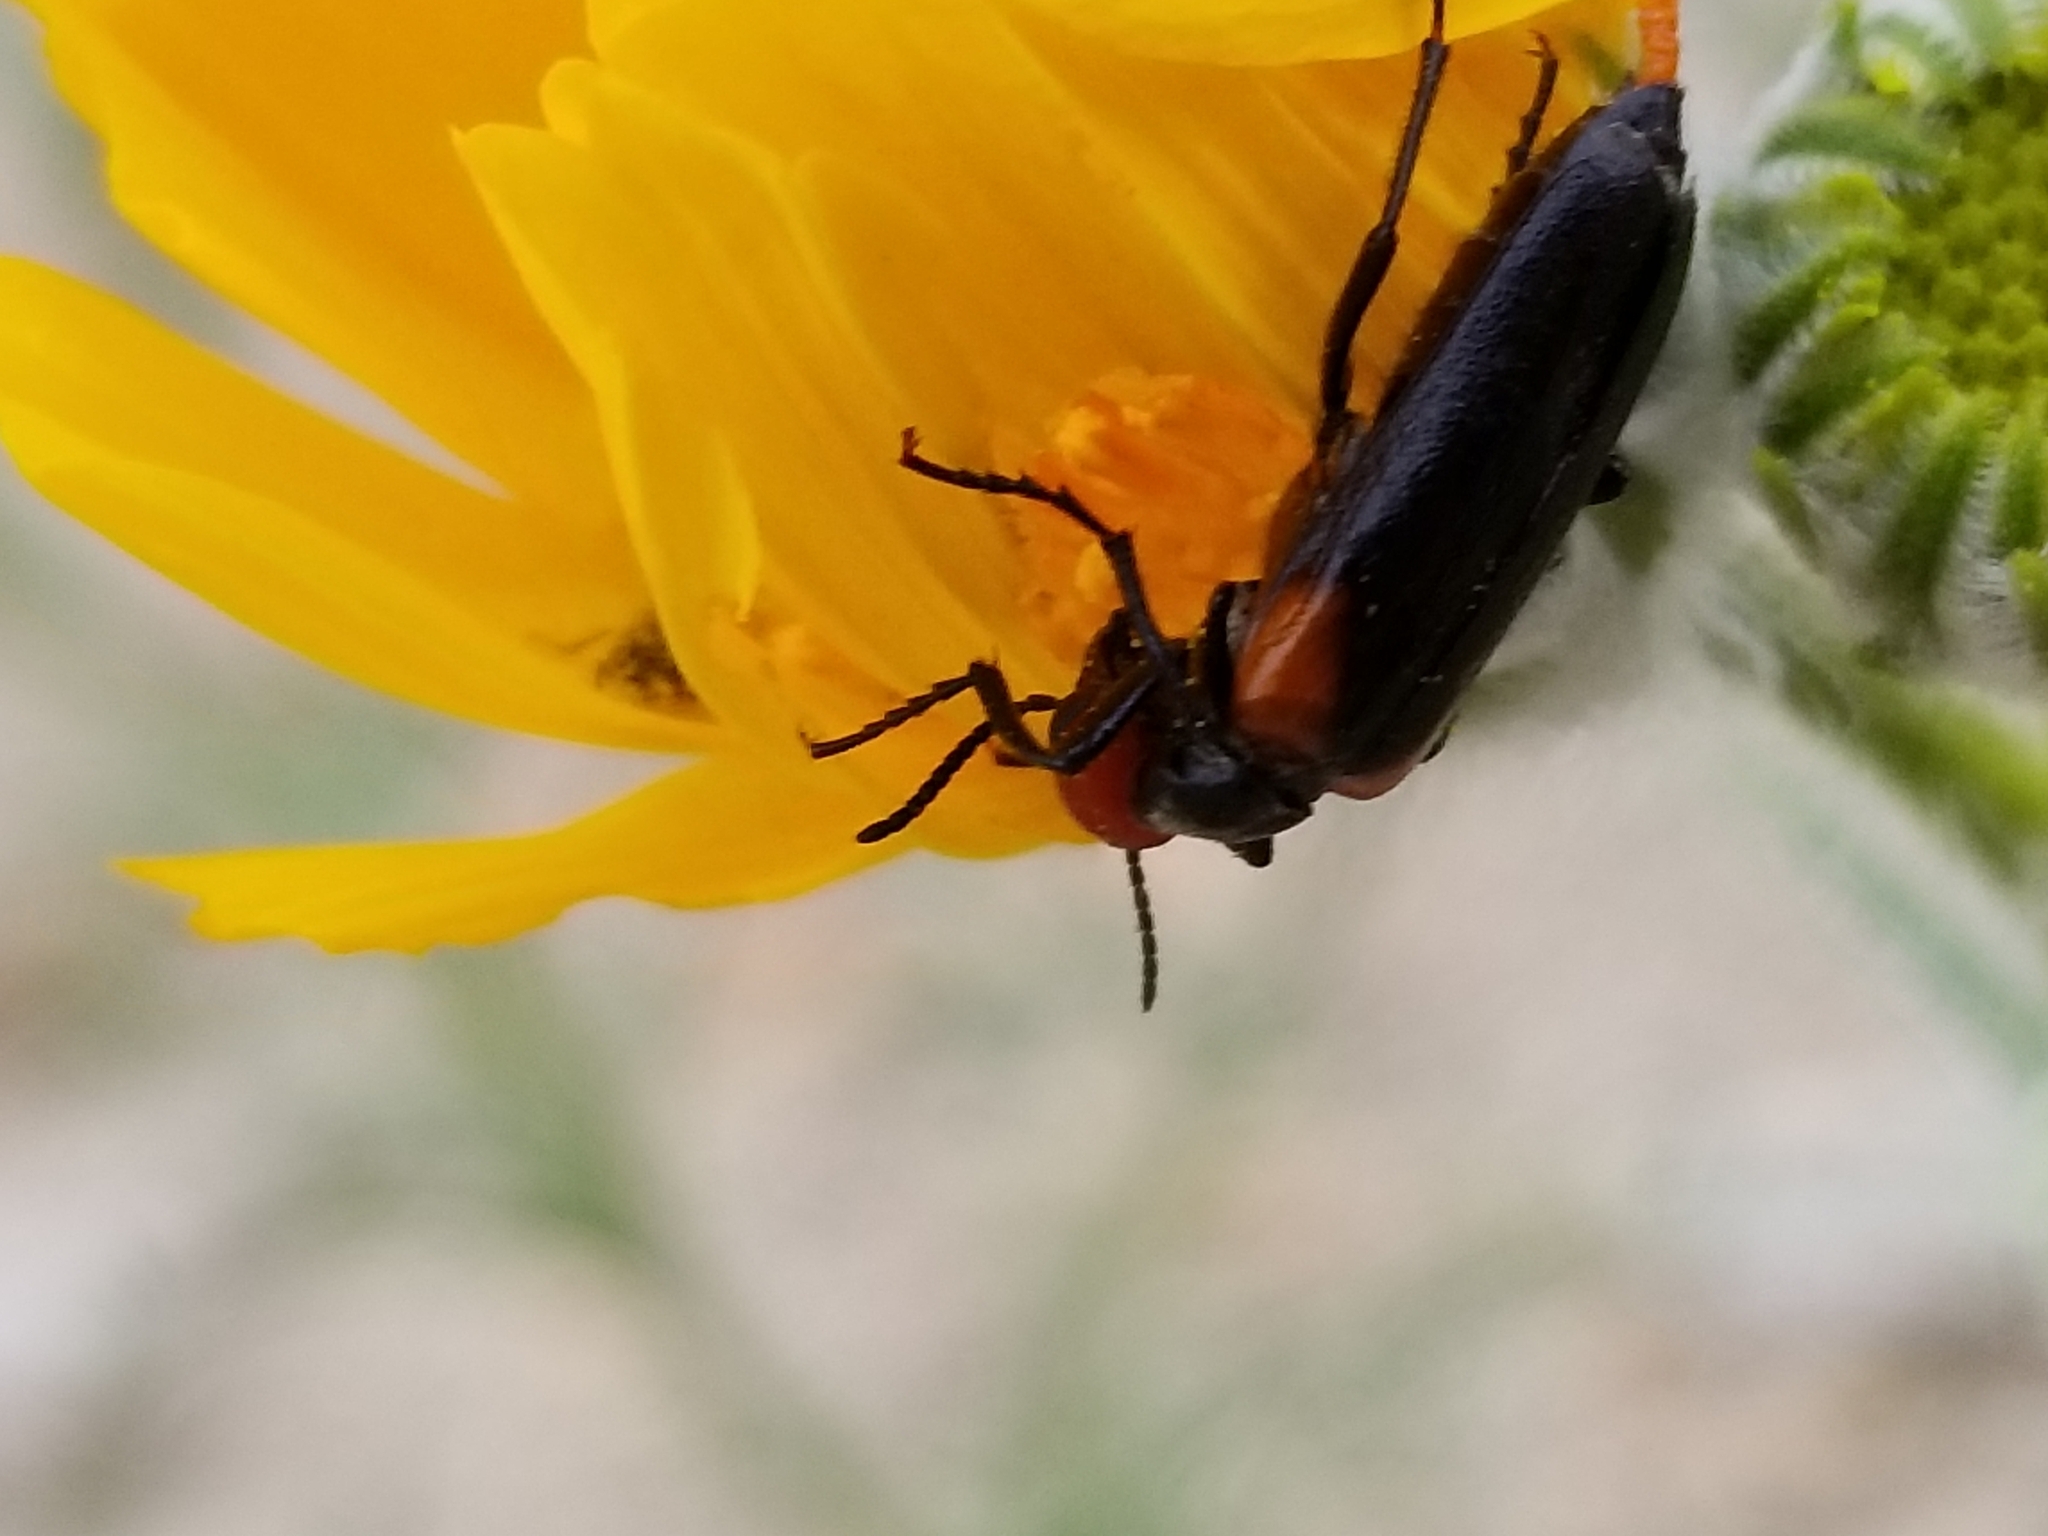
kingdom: Animalia
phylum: Arthropoda
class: Insecta
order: Coleoptera
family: Meloidae
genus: Eupompha
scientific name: Eupompha histrionica
